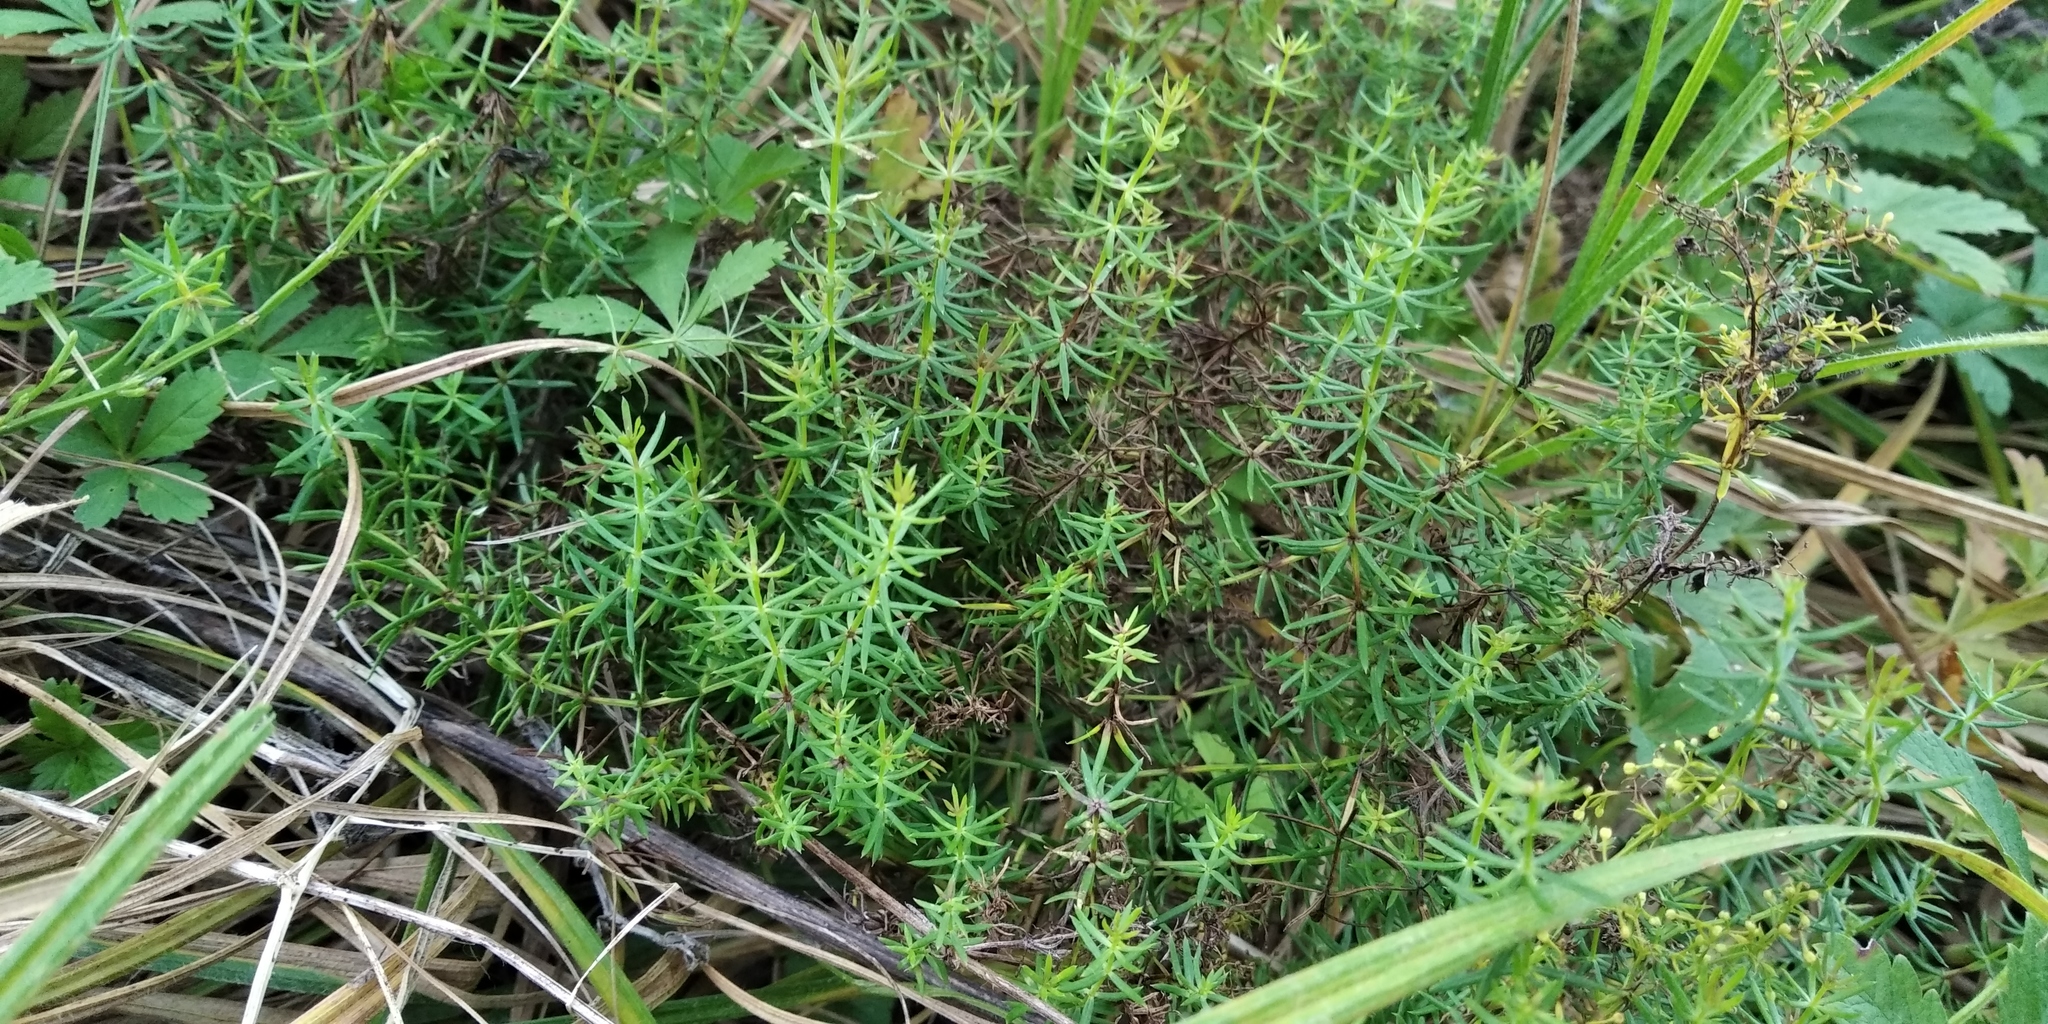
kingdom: Plantae
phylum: Tracheophyta
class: Magnoliopsida
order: Gentianales
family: Rubiaceae
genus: Galium
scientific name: Galium verum
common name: Lady's bedstraw
